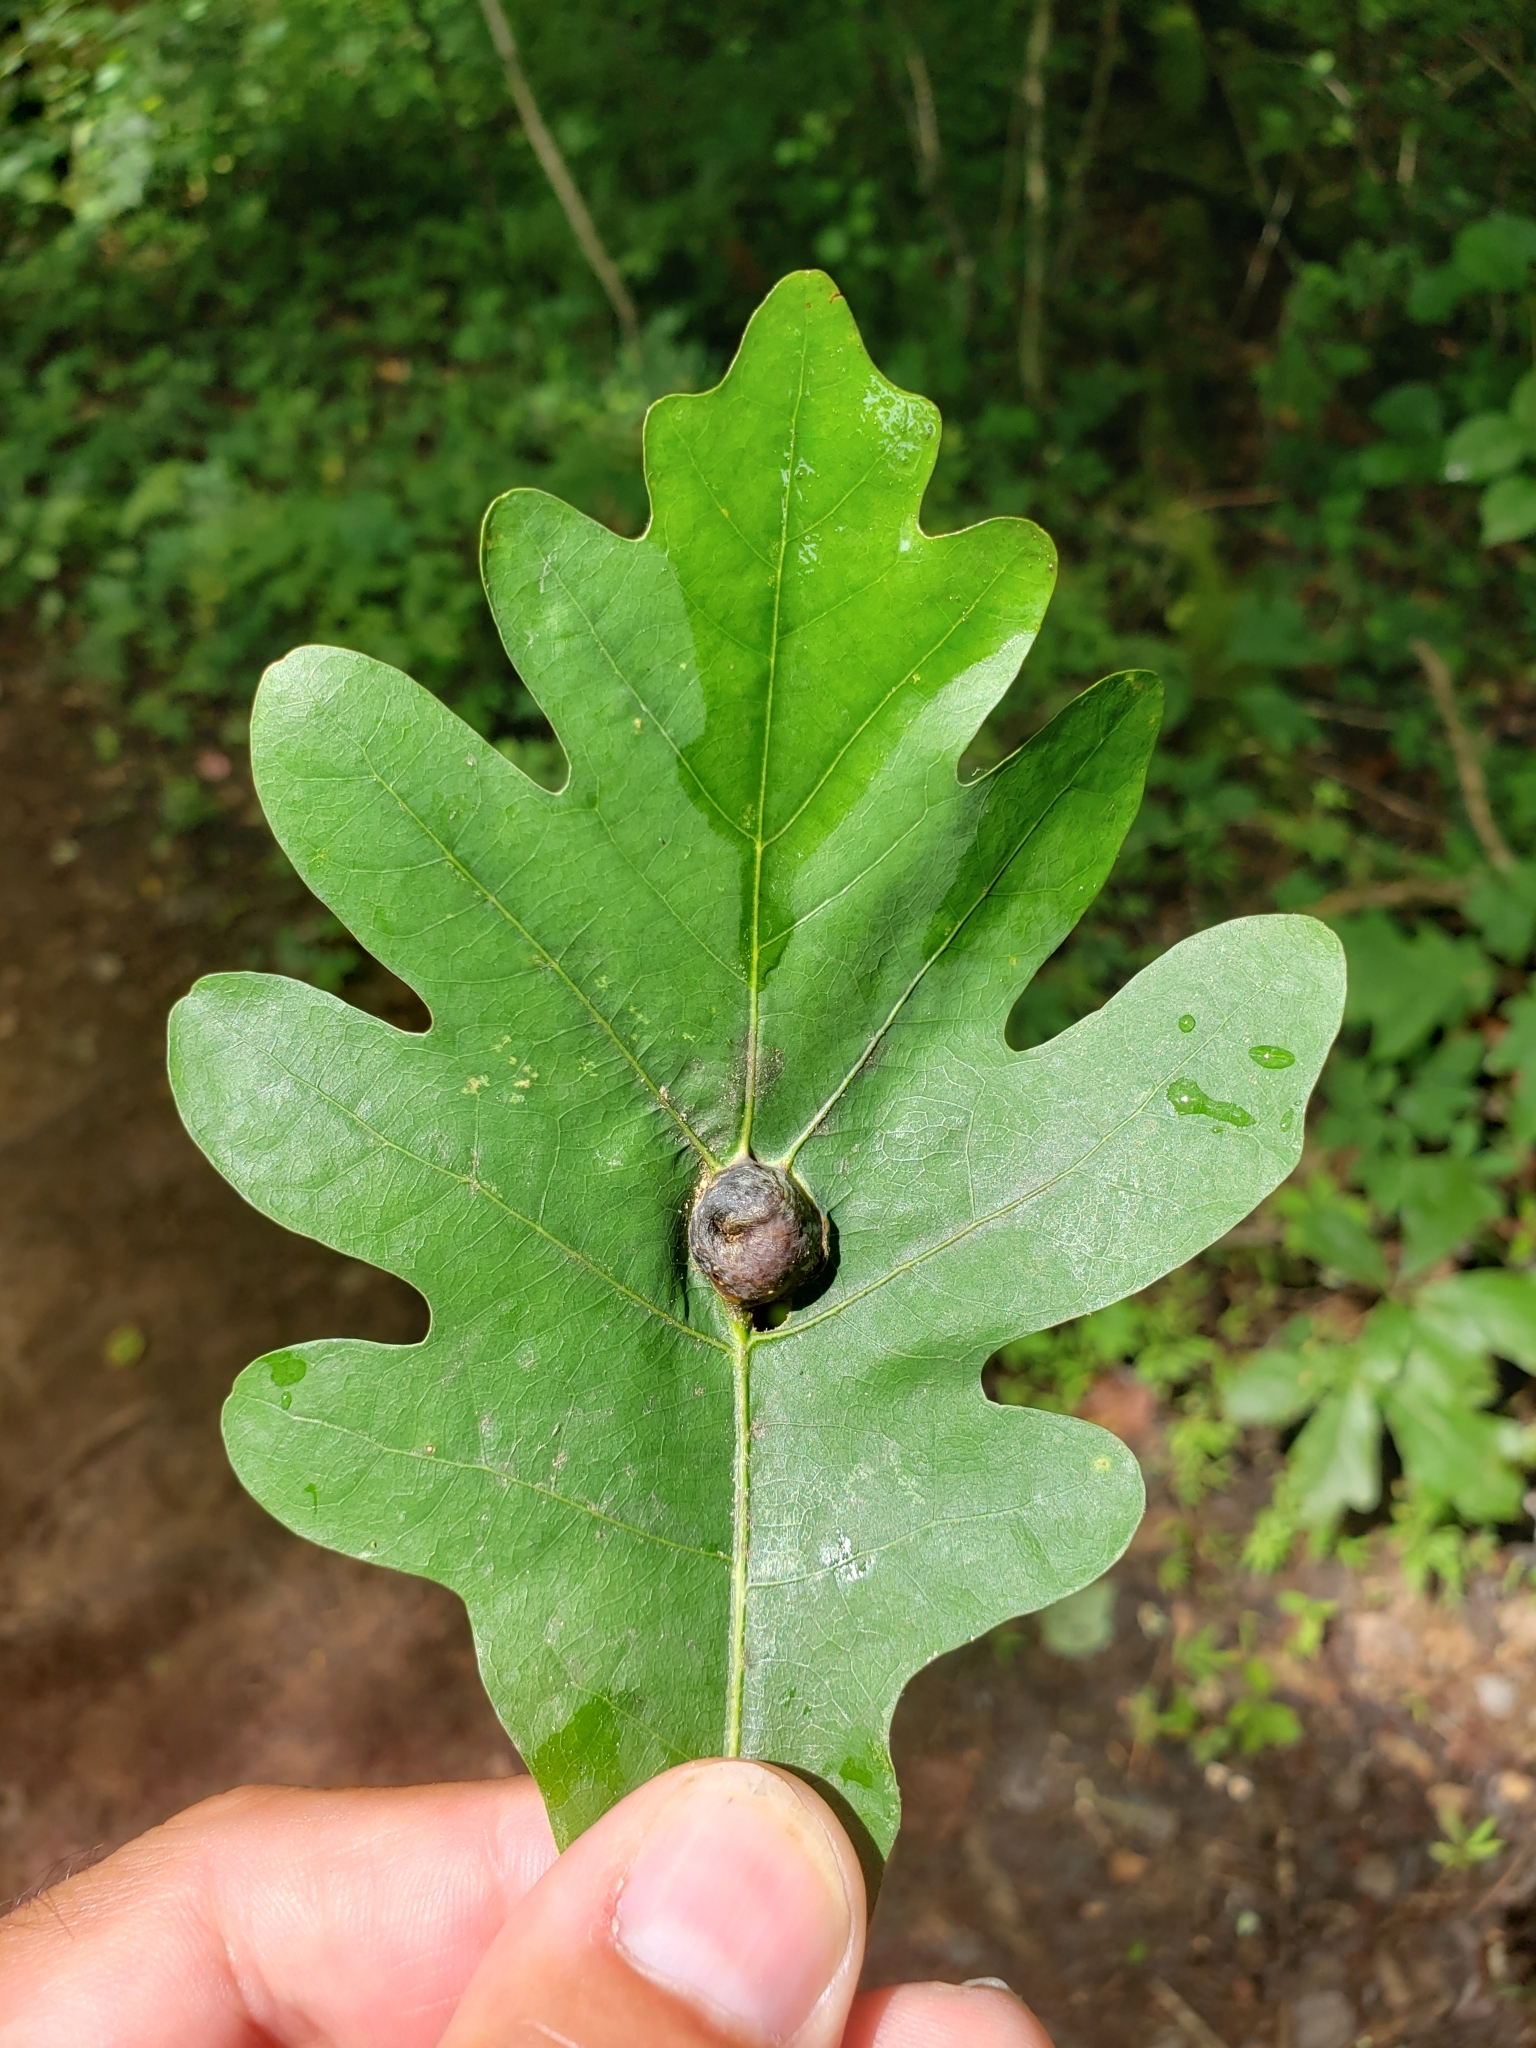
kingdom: Animalia
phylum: Arthropoda
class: Insecta
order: Hymenoptera
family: Cynipidae
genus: Andricus
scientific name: Andricus
